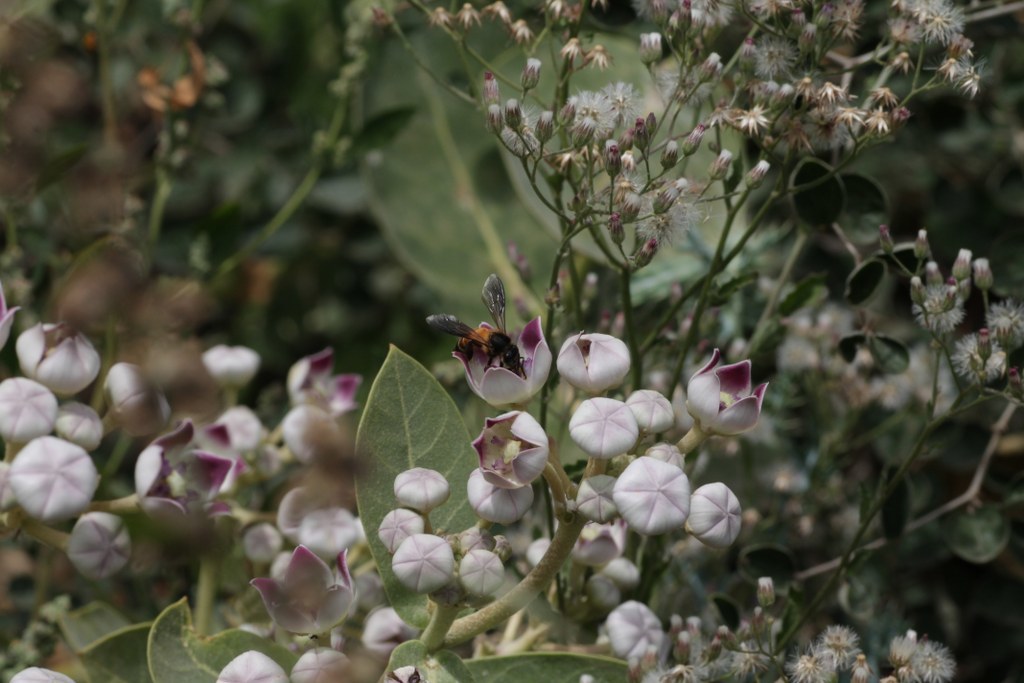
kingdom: Plantae
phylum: Tracheophyta
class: Magnoliopsida
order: Gentianales
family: Apocynaceae
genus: Calotropis
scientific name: Calotropis procera
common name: Roostertree
